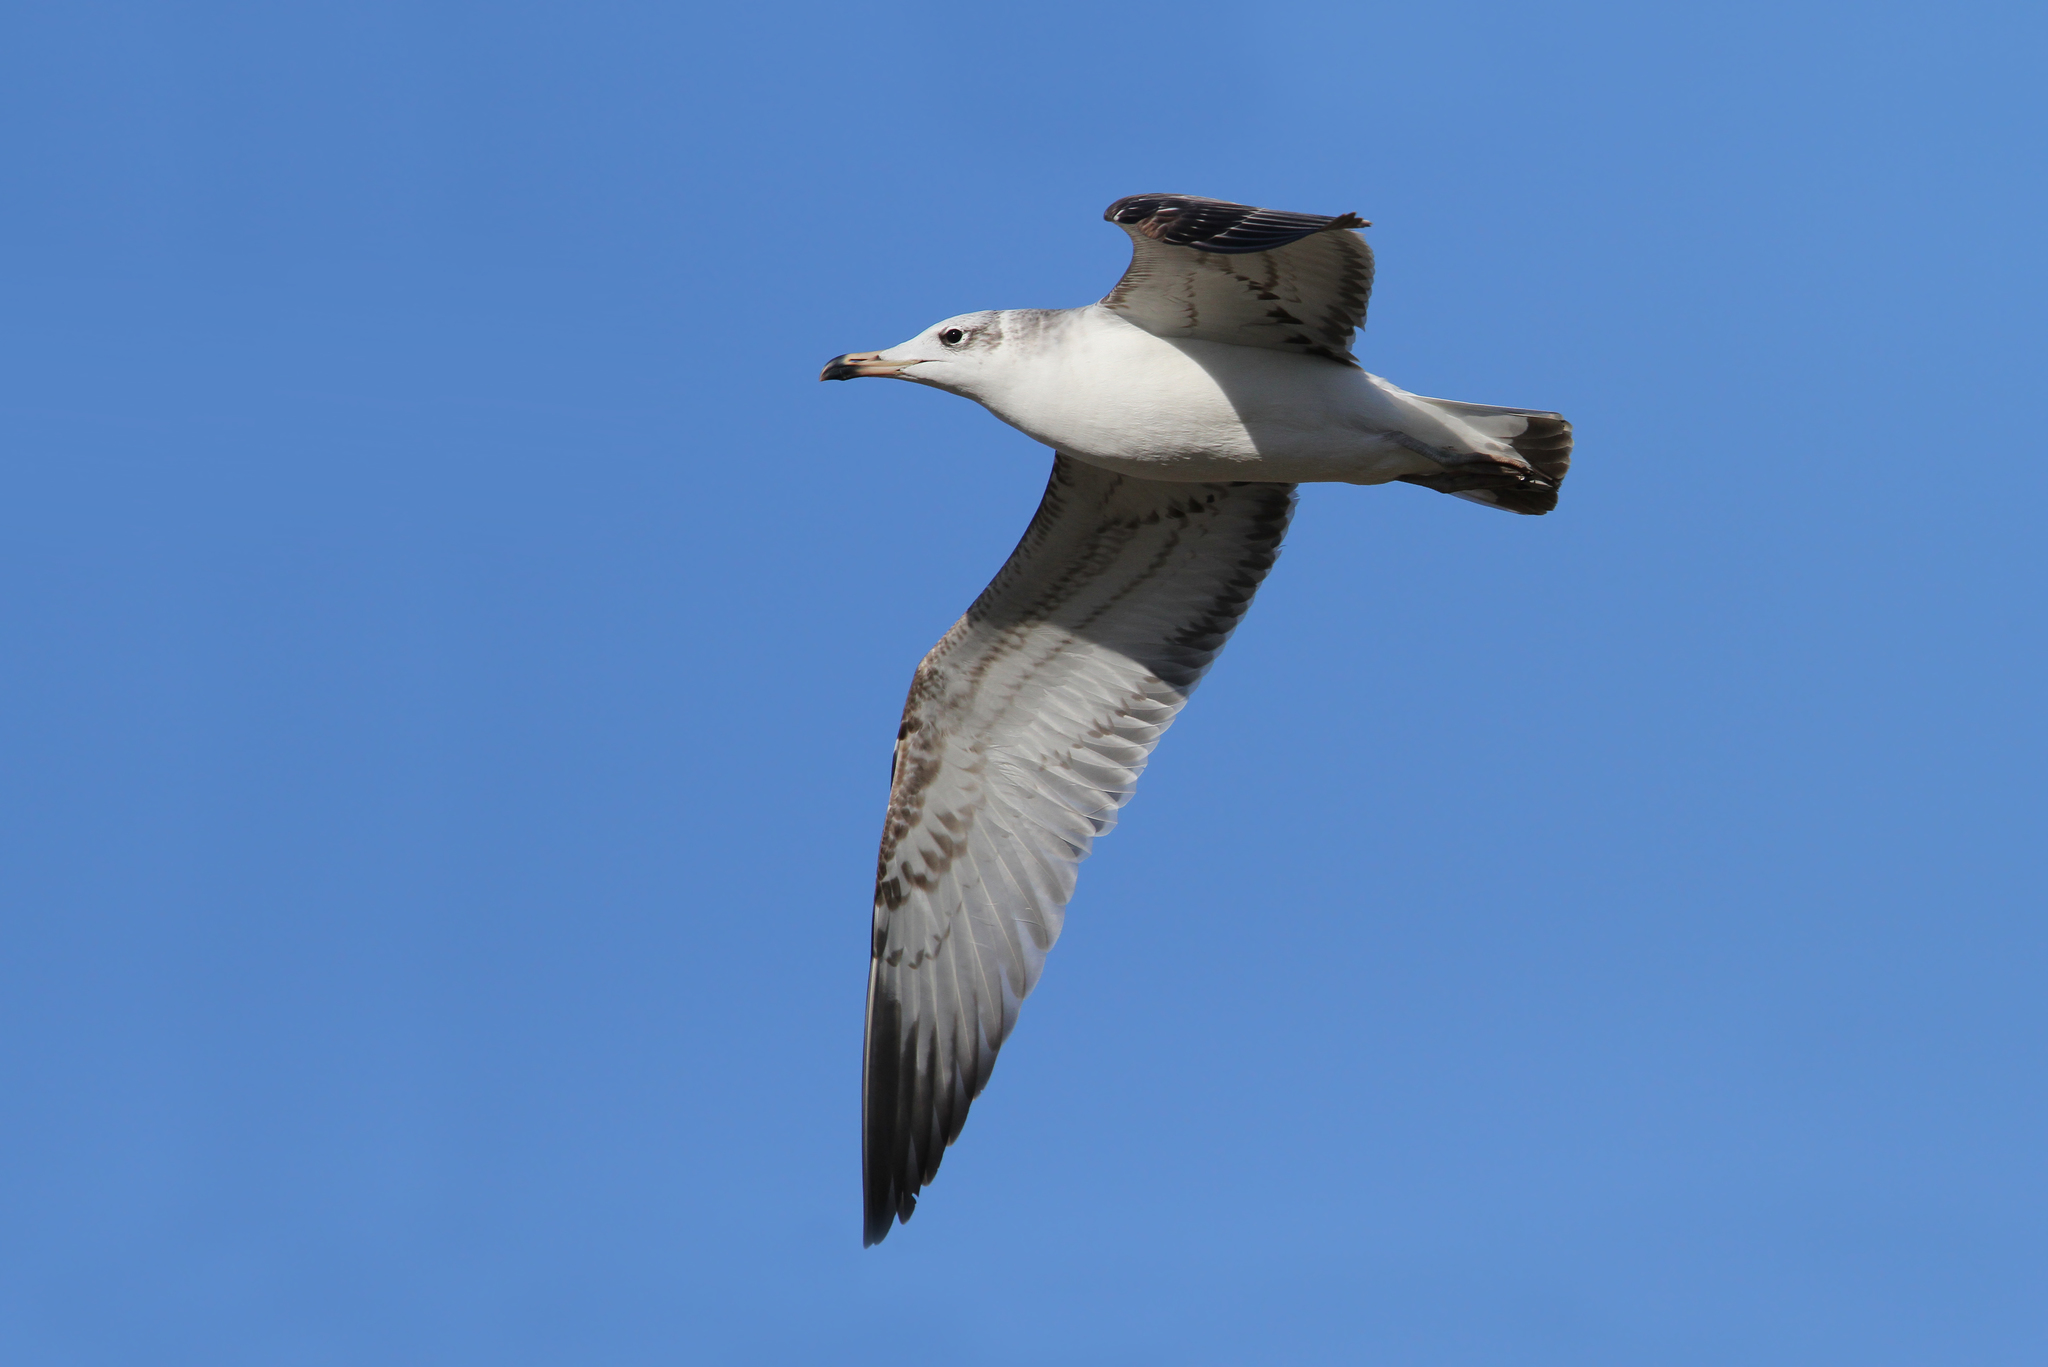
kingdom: Animalia
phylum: Chordata
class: Aves
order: Charadriiformes
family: Laridae
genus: Ichthyaetus
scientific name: Ichthyaetus ichthyaetus
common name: Pallas's gull
